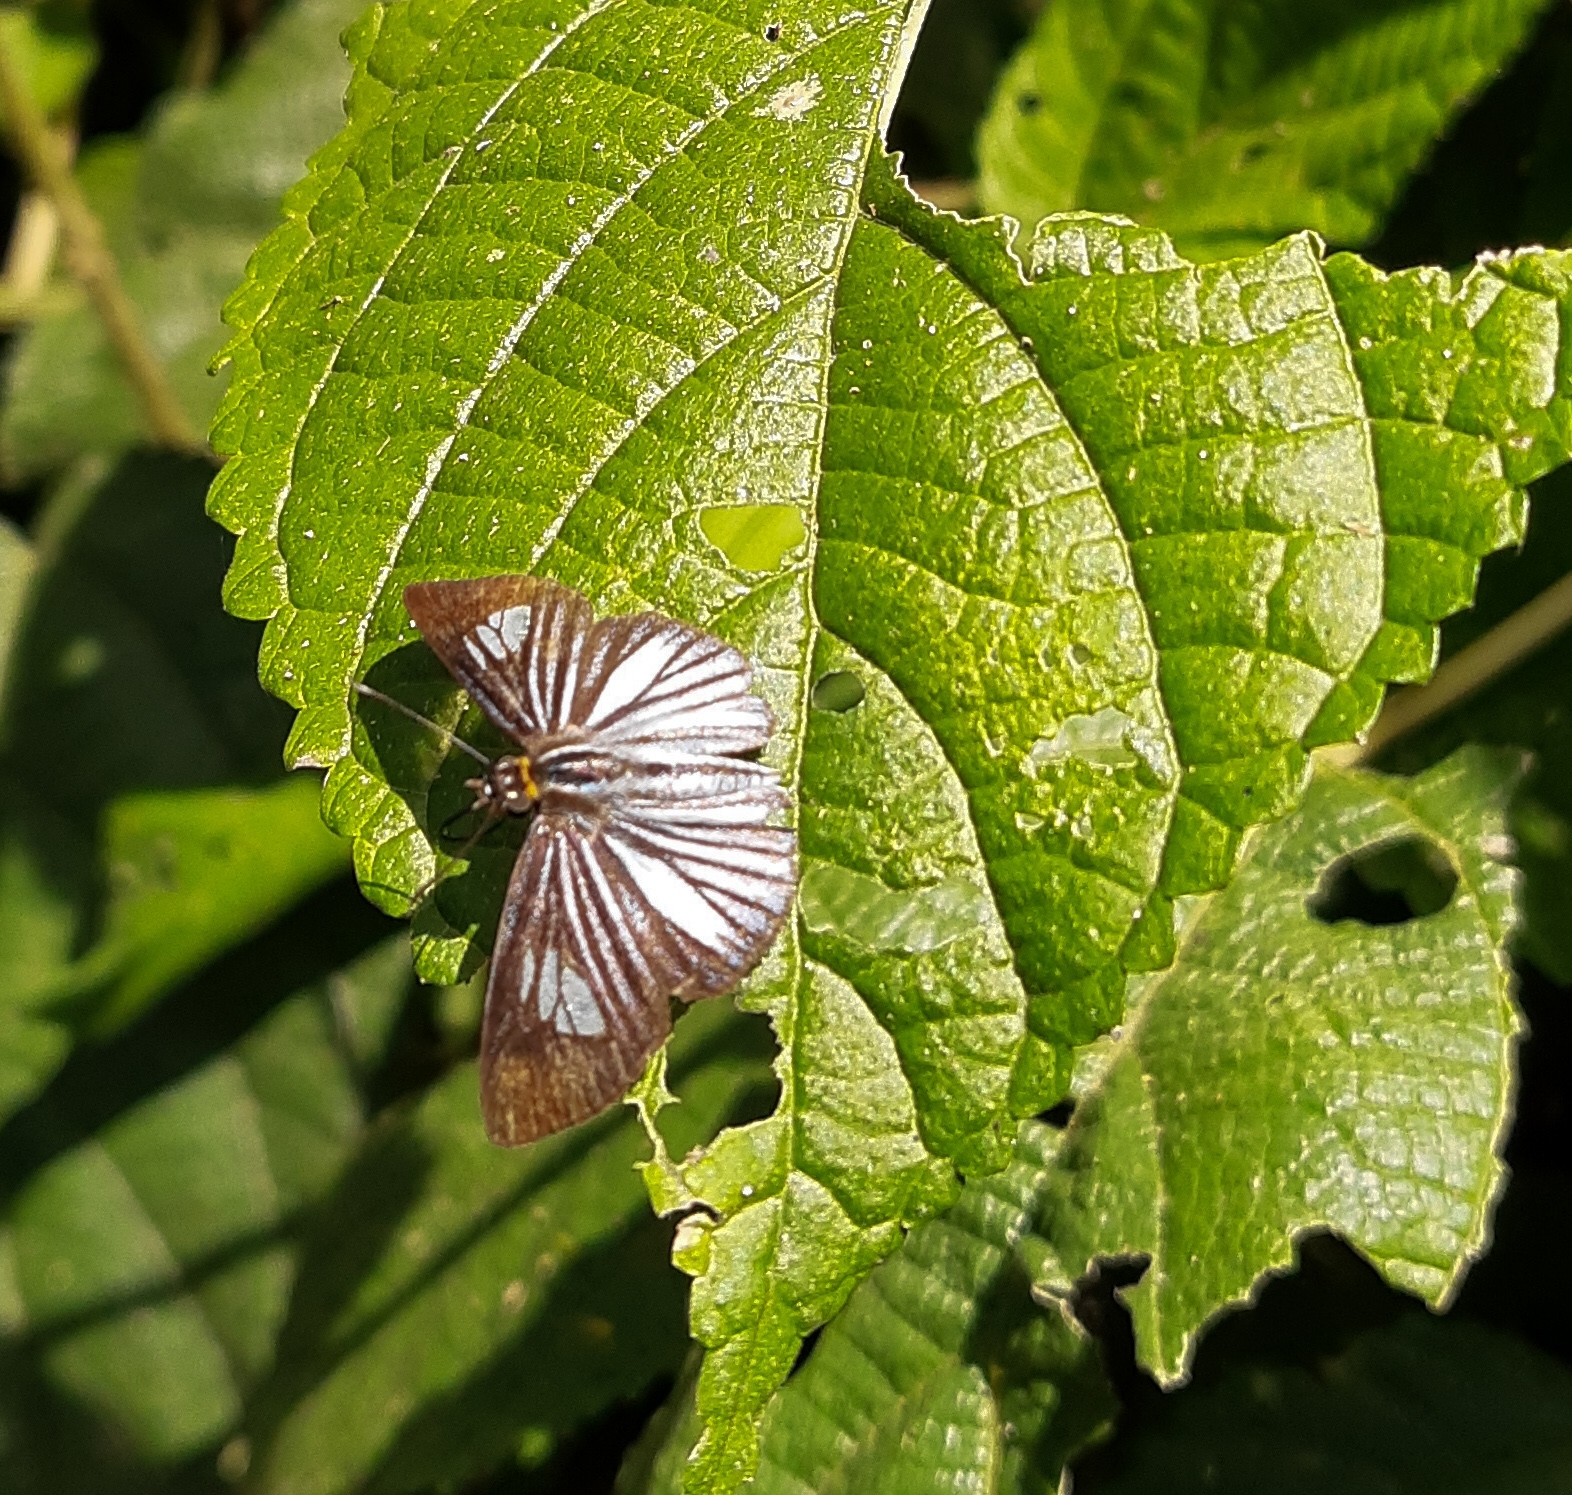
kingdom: Animalia
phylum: Arthropoda
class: Insecta
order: Lepidoptera
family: Hesperiidae
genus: Pythonides
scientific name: Pythonides lancea
